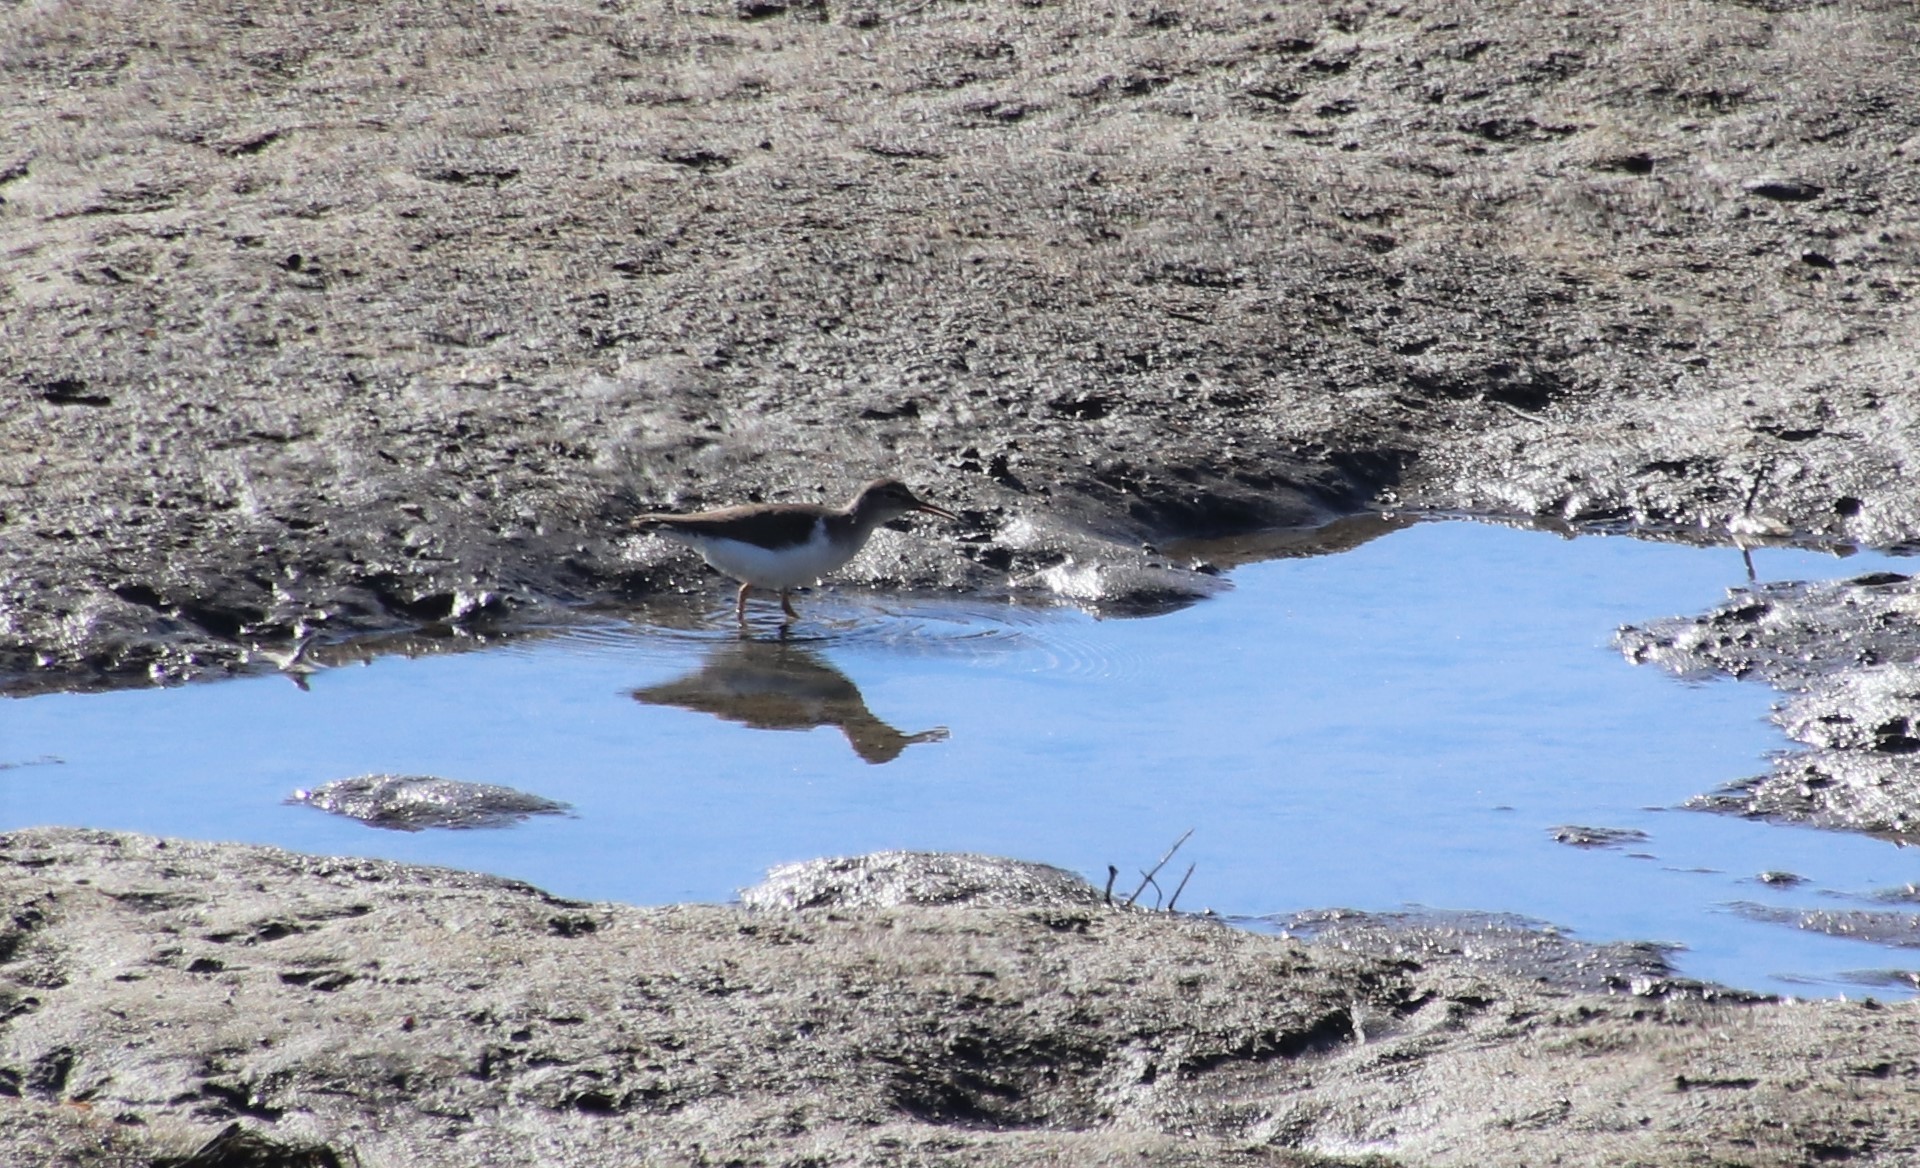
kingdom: Animalia
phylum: Chordata
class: Aves
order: Charadriiformes
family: Scolopacidae
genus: Actitis
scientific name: Actitis macularius
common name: Spotted sandpiper
